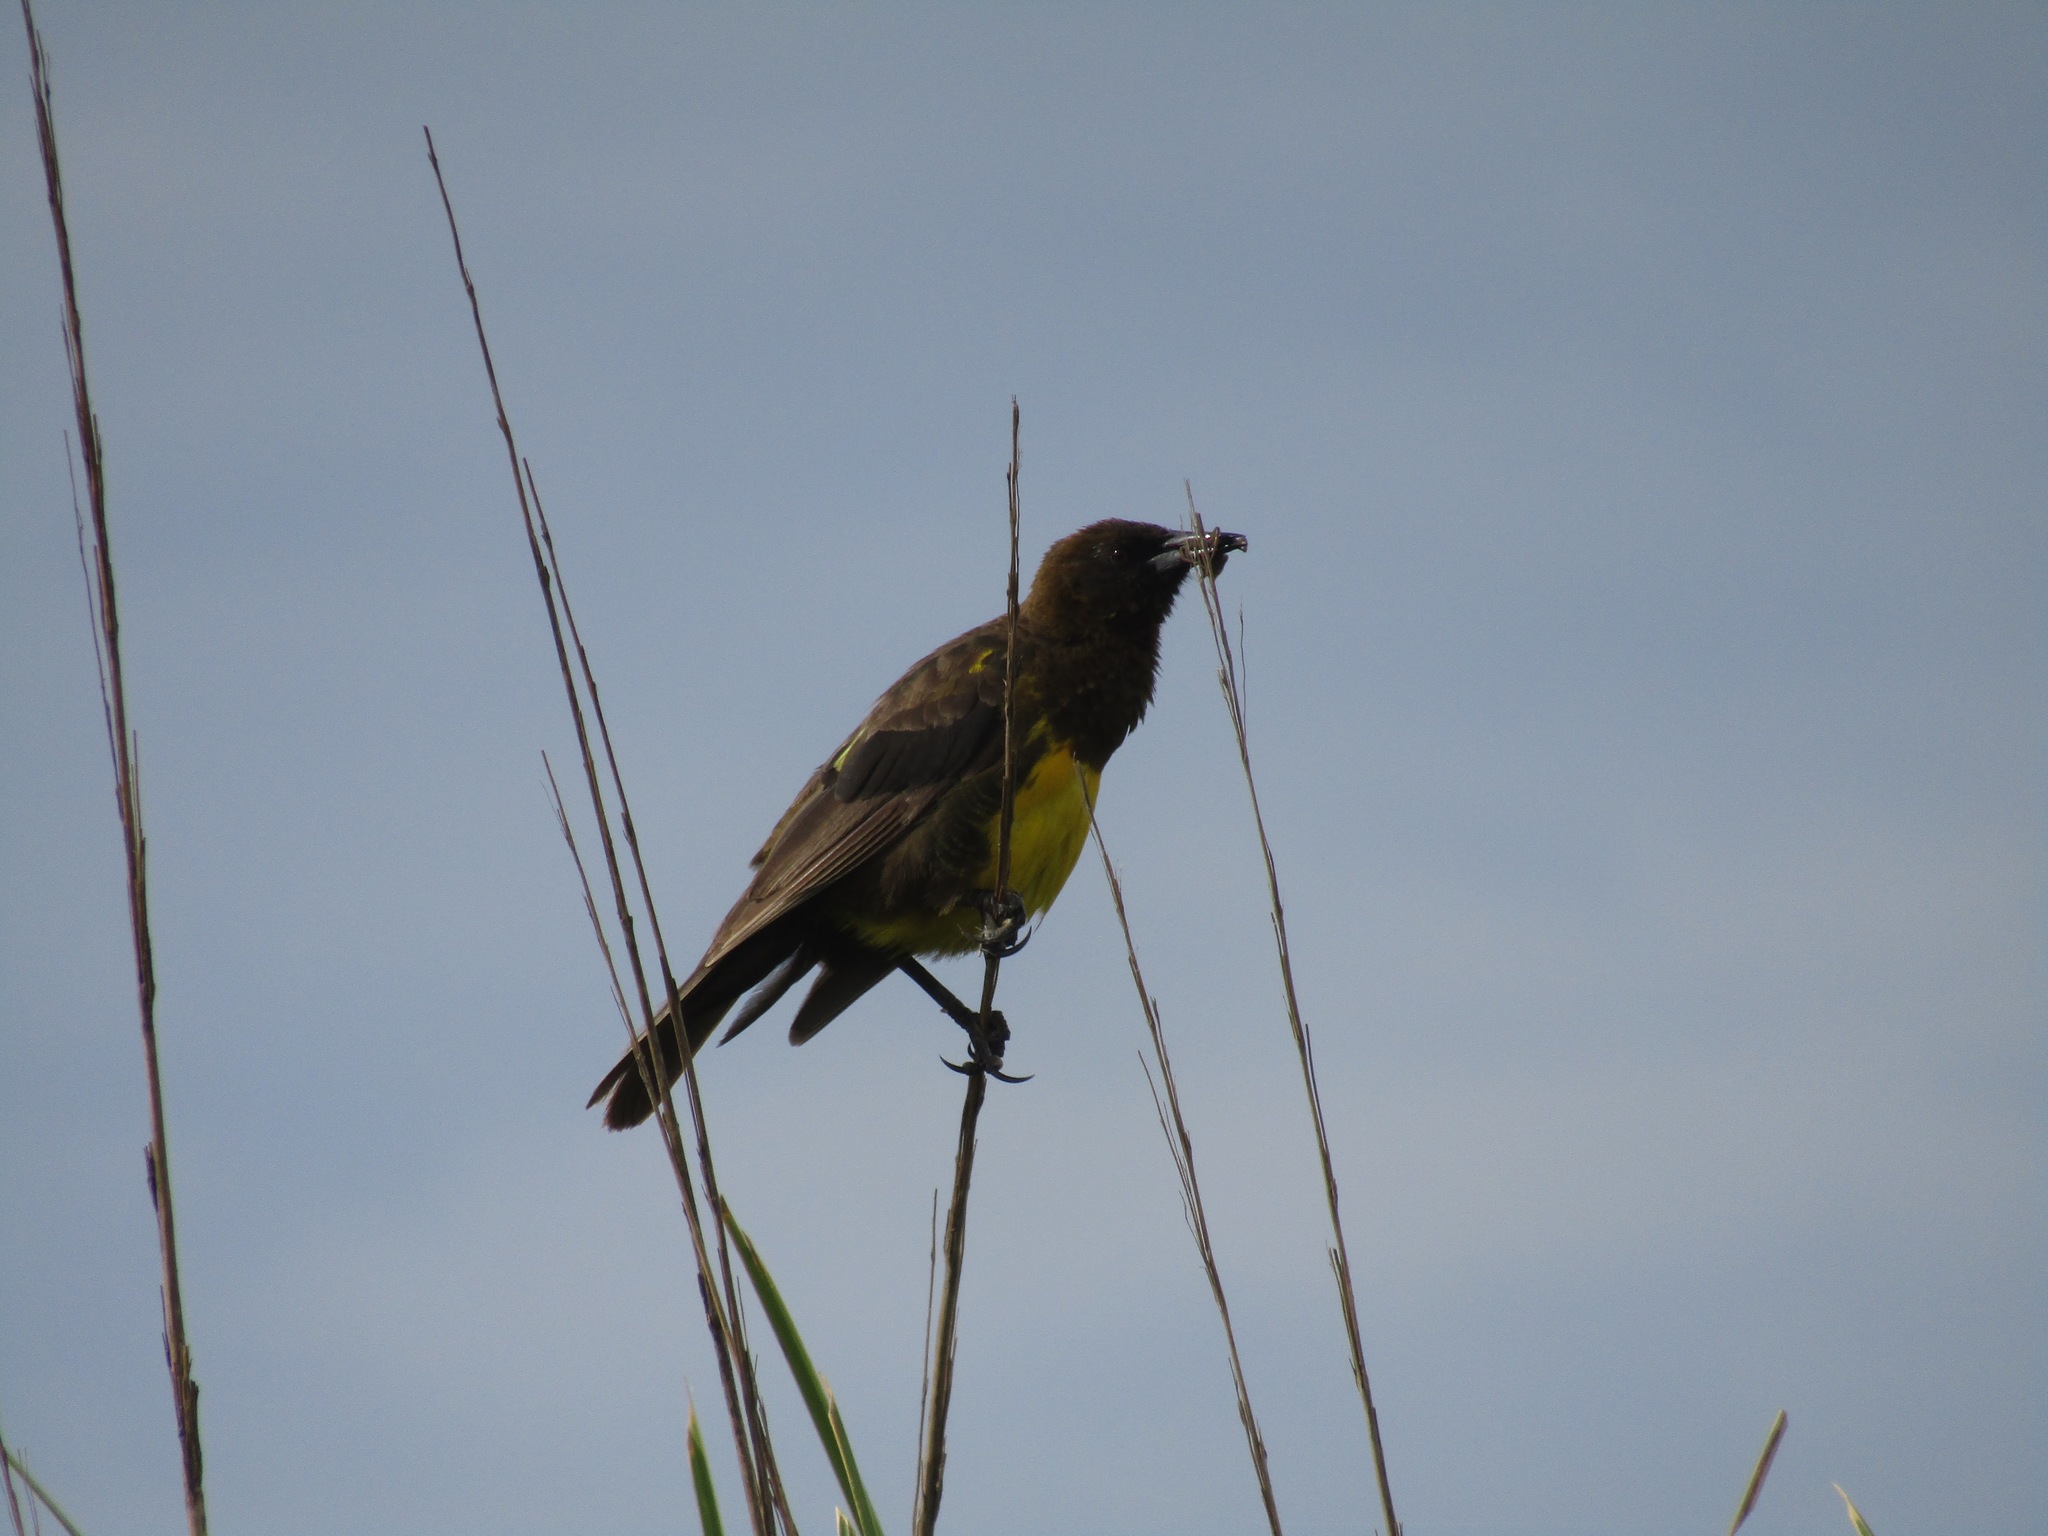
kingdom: Animalia
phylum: Chordata
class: Aves
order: Passeriformes
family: Icteridae
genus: Pseudoleistes
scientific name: Pseudoleistes virescens
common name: Brown-and-yellow marshbird
